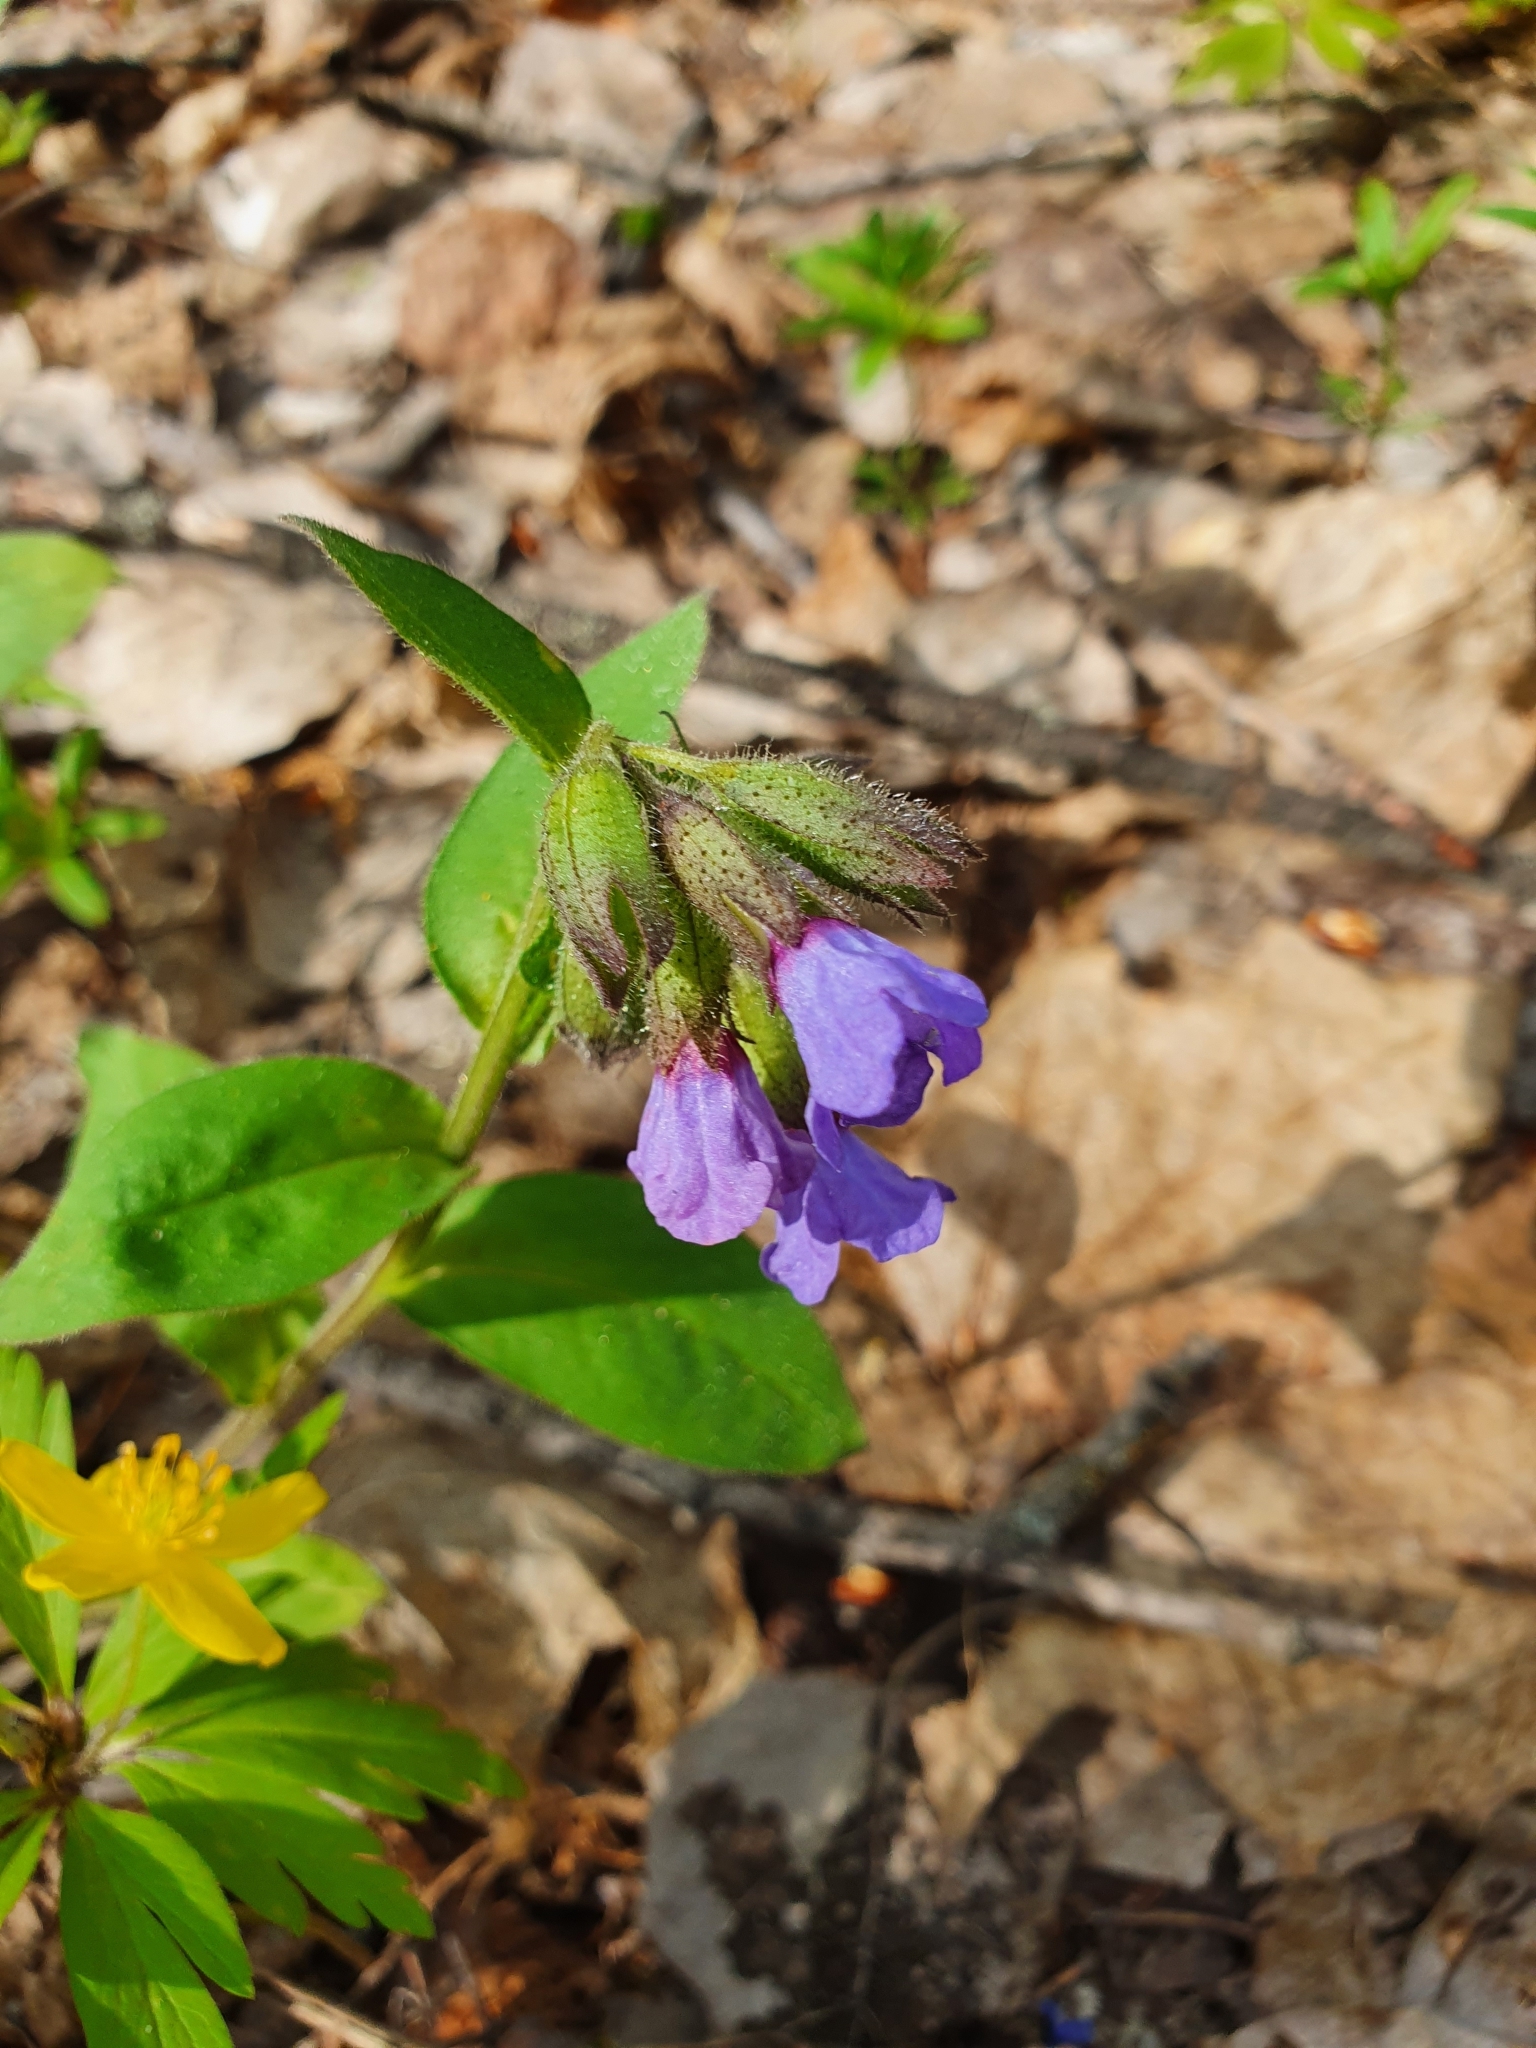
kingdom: Plantae
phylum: Tracheophyta
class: Magnoliopsida
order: Boraginales
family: Boraginaceae
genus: Pulmonaria
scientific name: Pulmonaria obscura
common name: Suffolk lungwort
